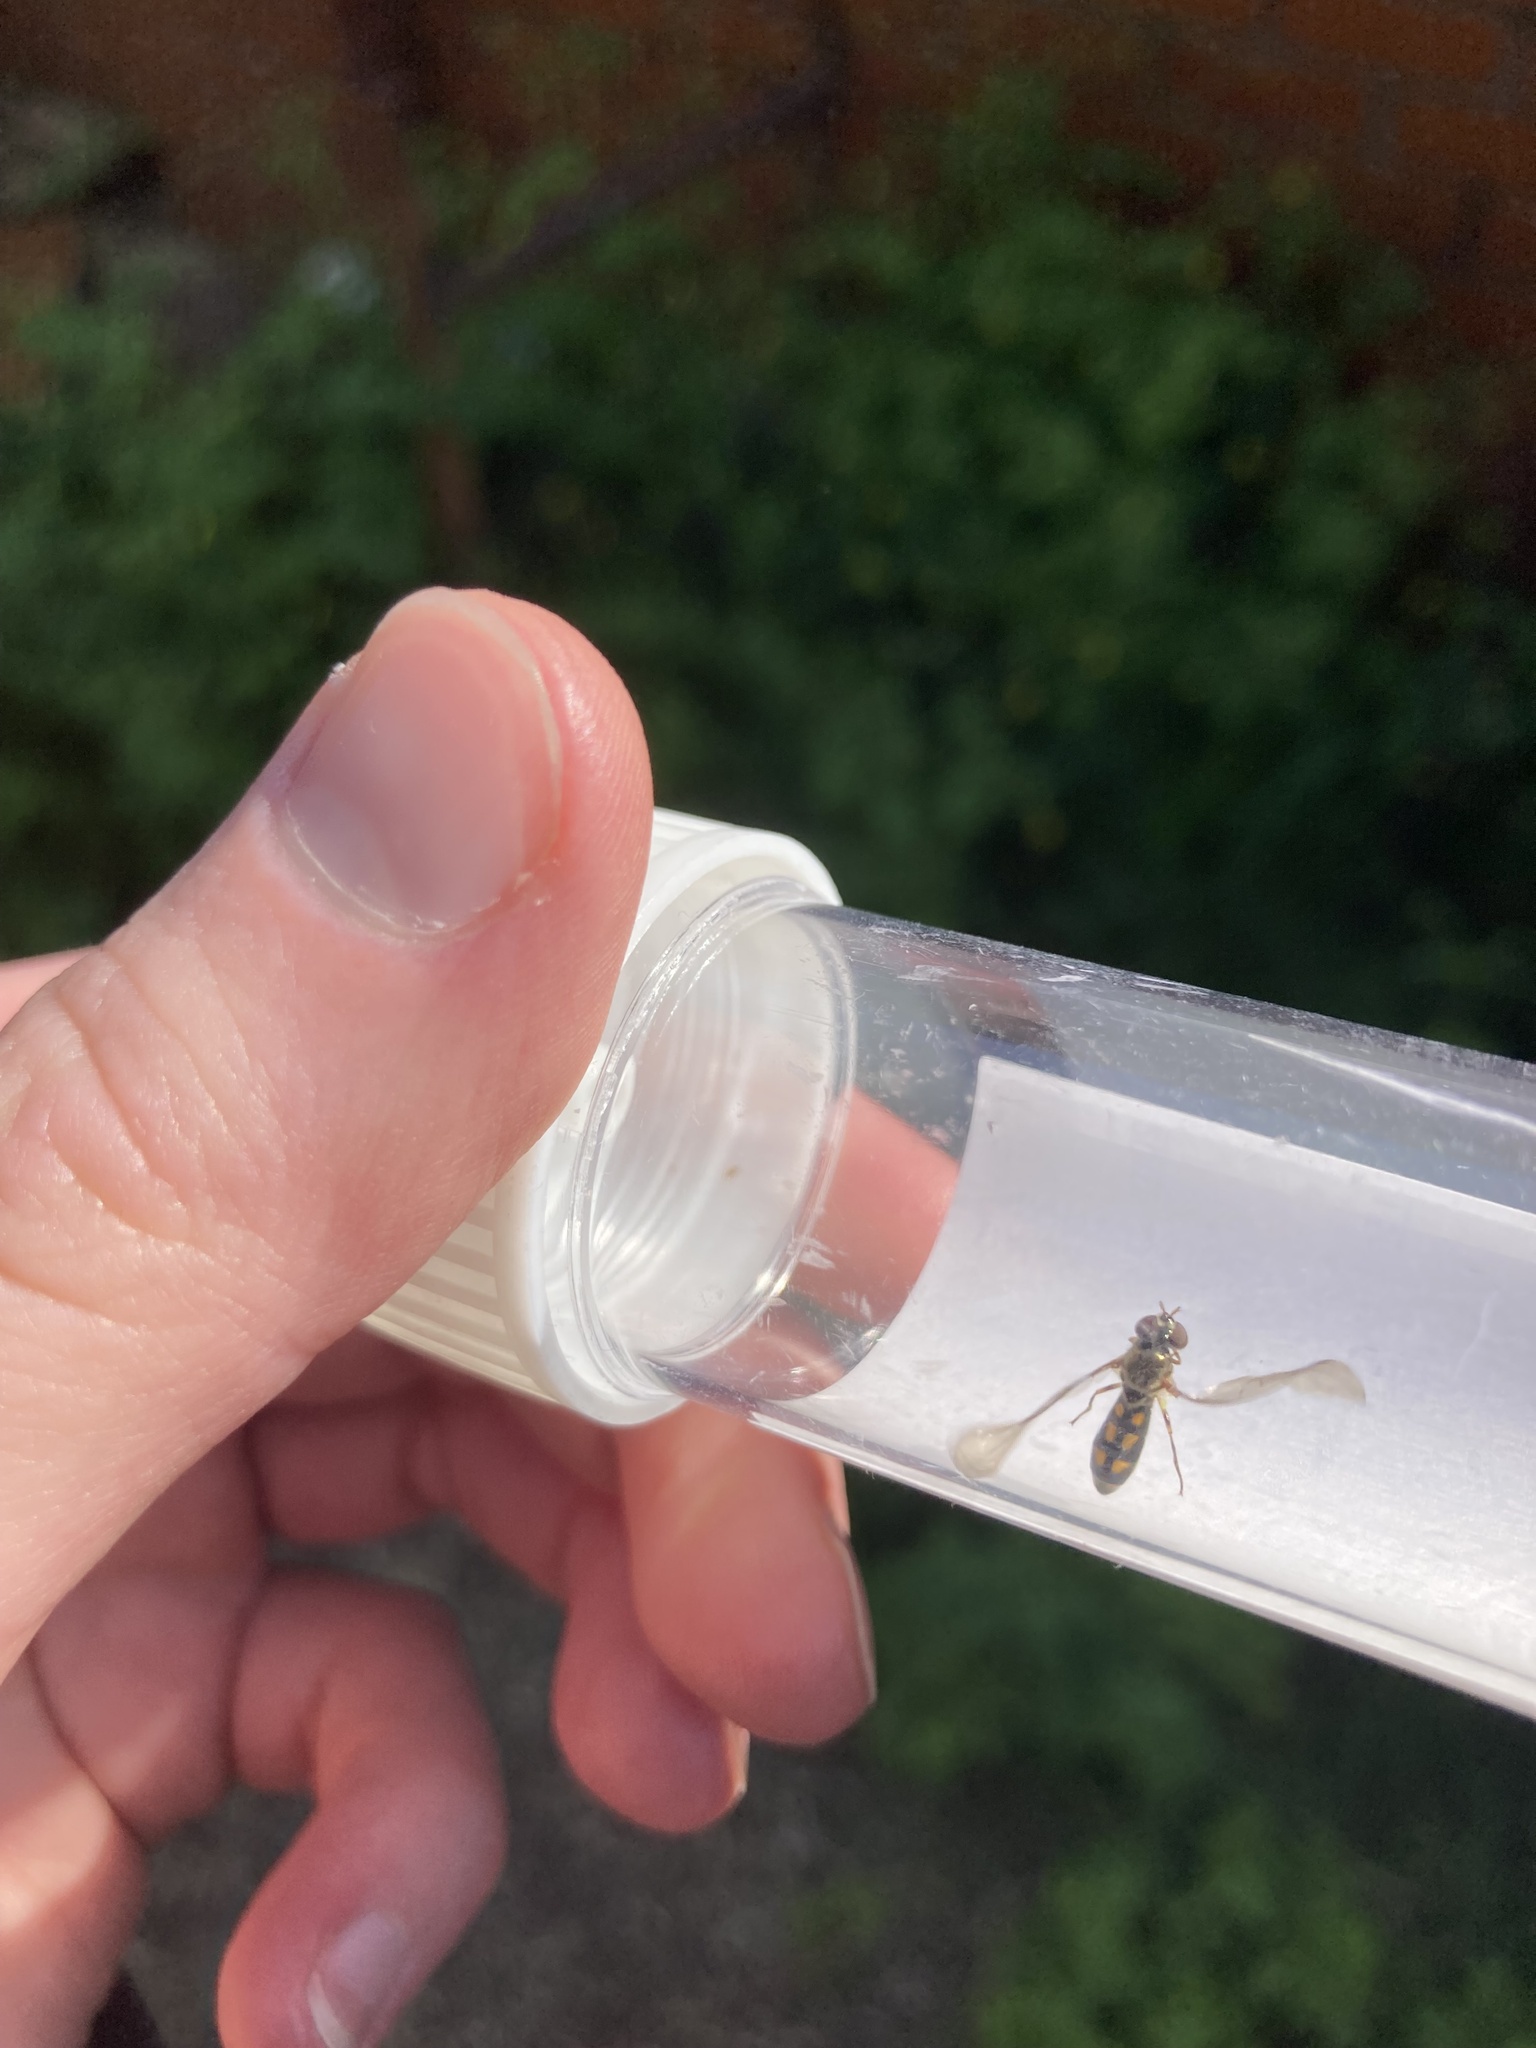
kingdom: Animalia
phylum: Arthropoda
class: Insecta
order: Diptera
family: Syrphidae
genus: Melanostoma
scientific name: Melanostoma scalare
